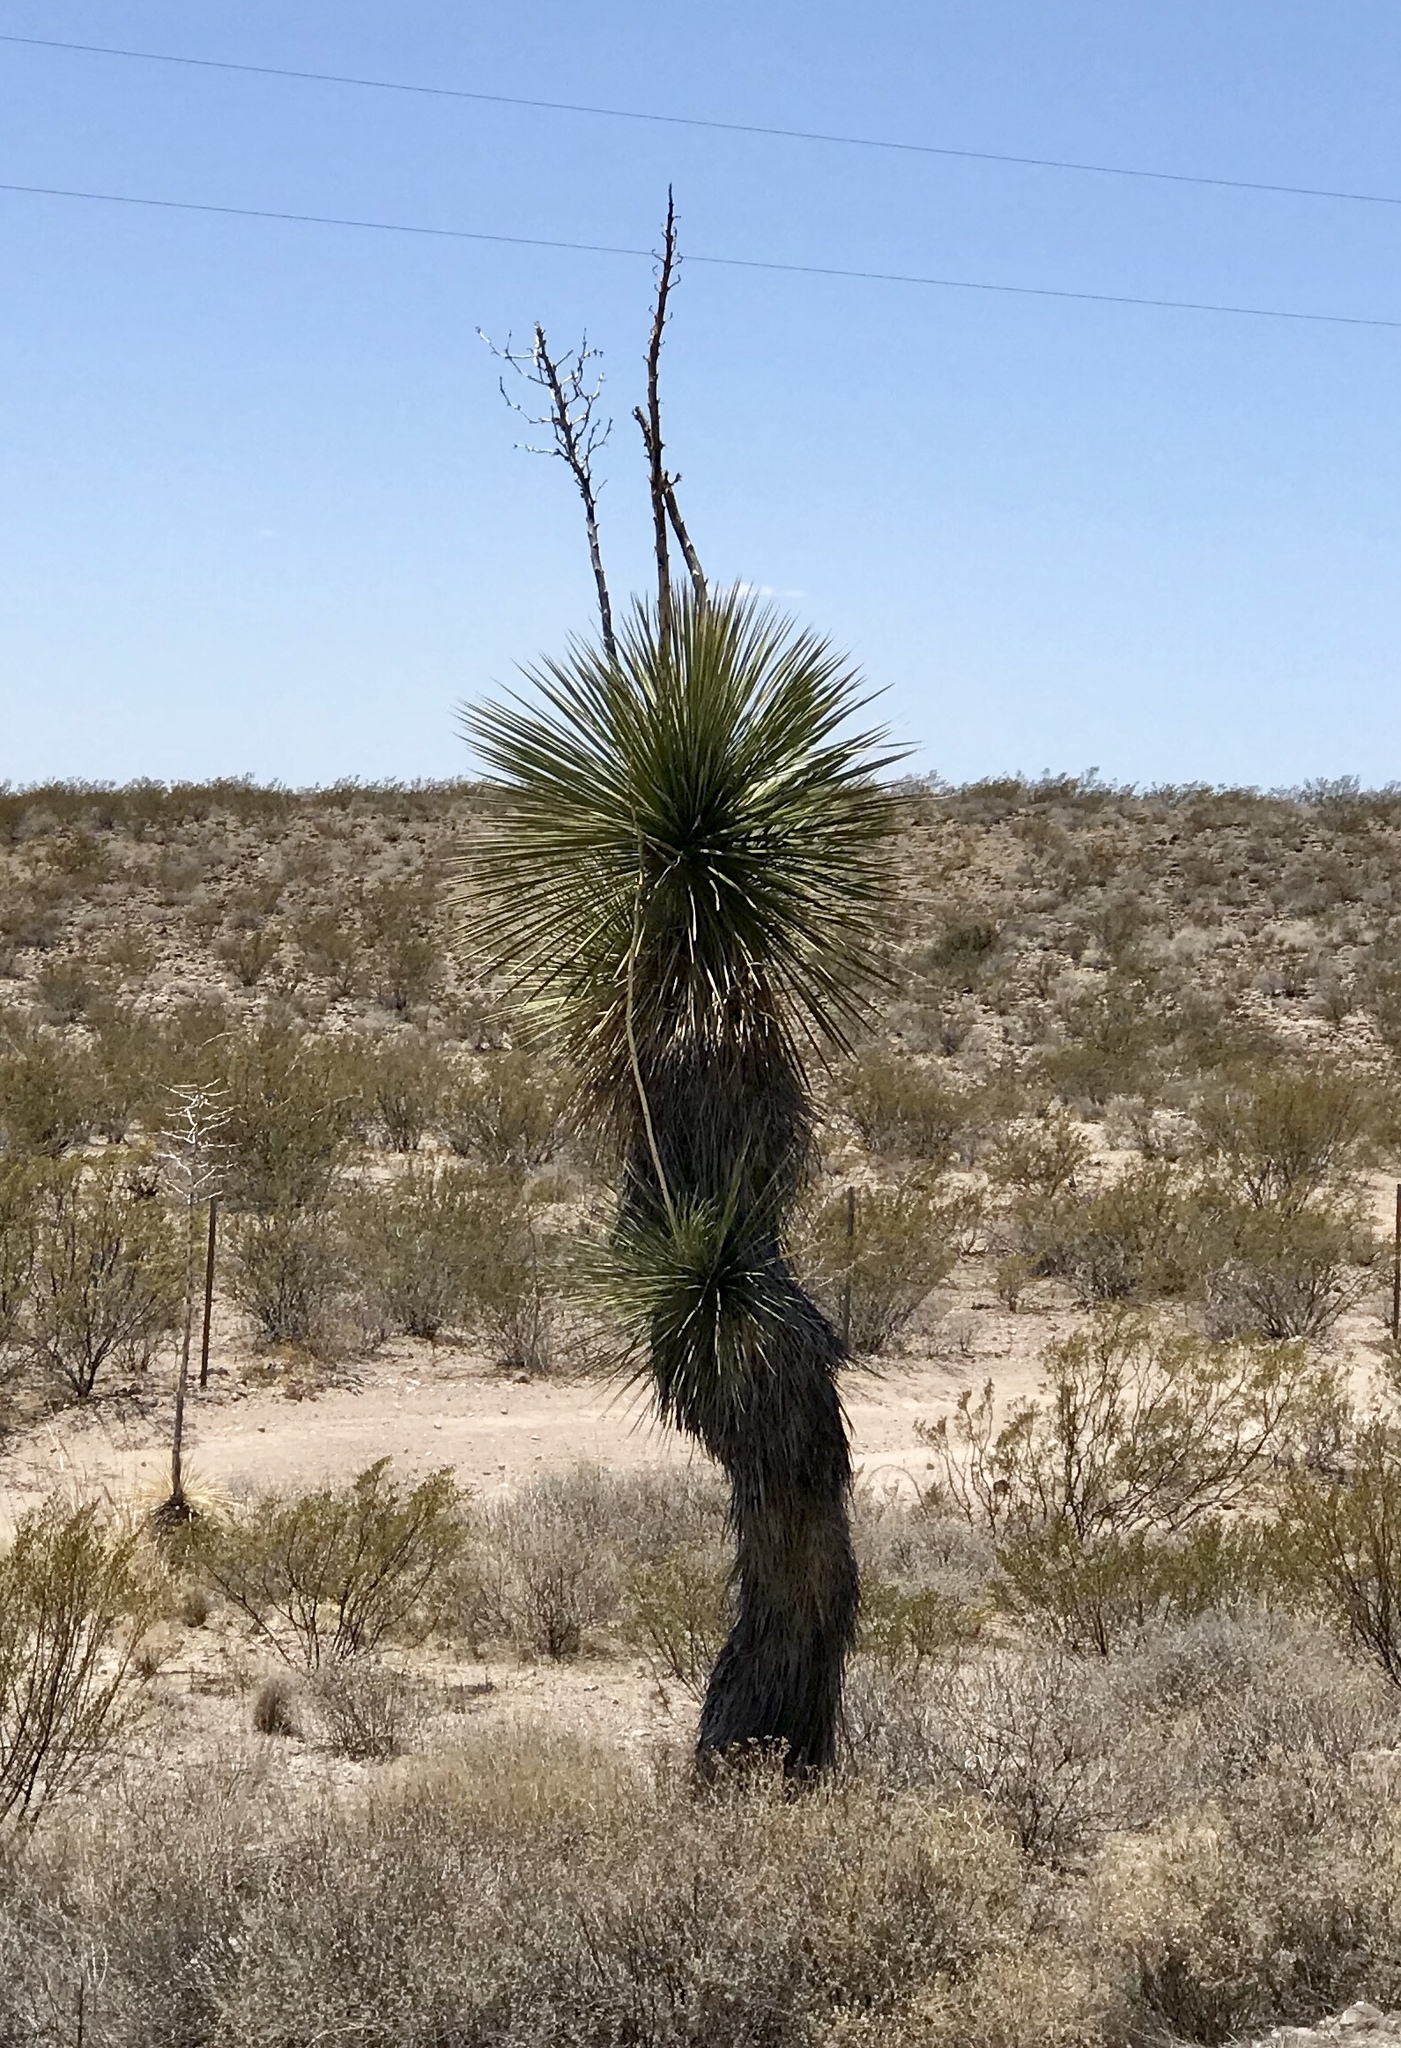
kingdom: Plantae
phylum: Tracheophyta
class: Liliopsida
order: Asparagales
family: Asparagaceae
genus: Yucca
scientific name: Yucca elata
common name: Palmella
